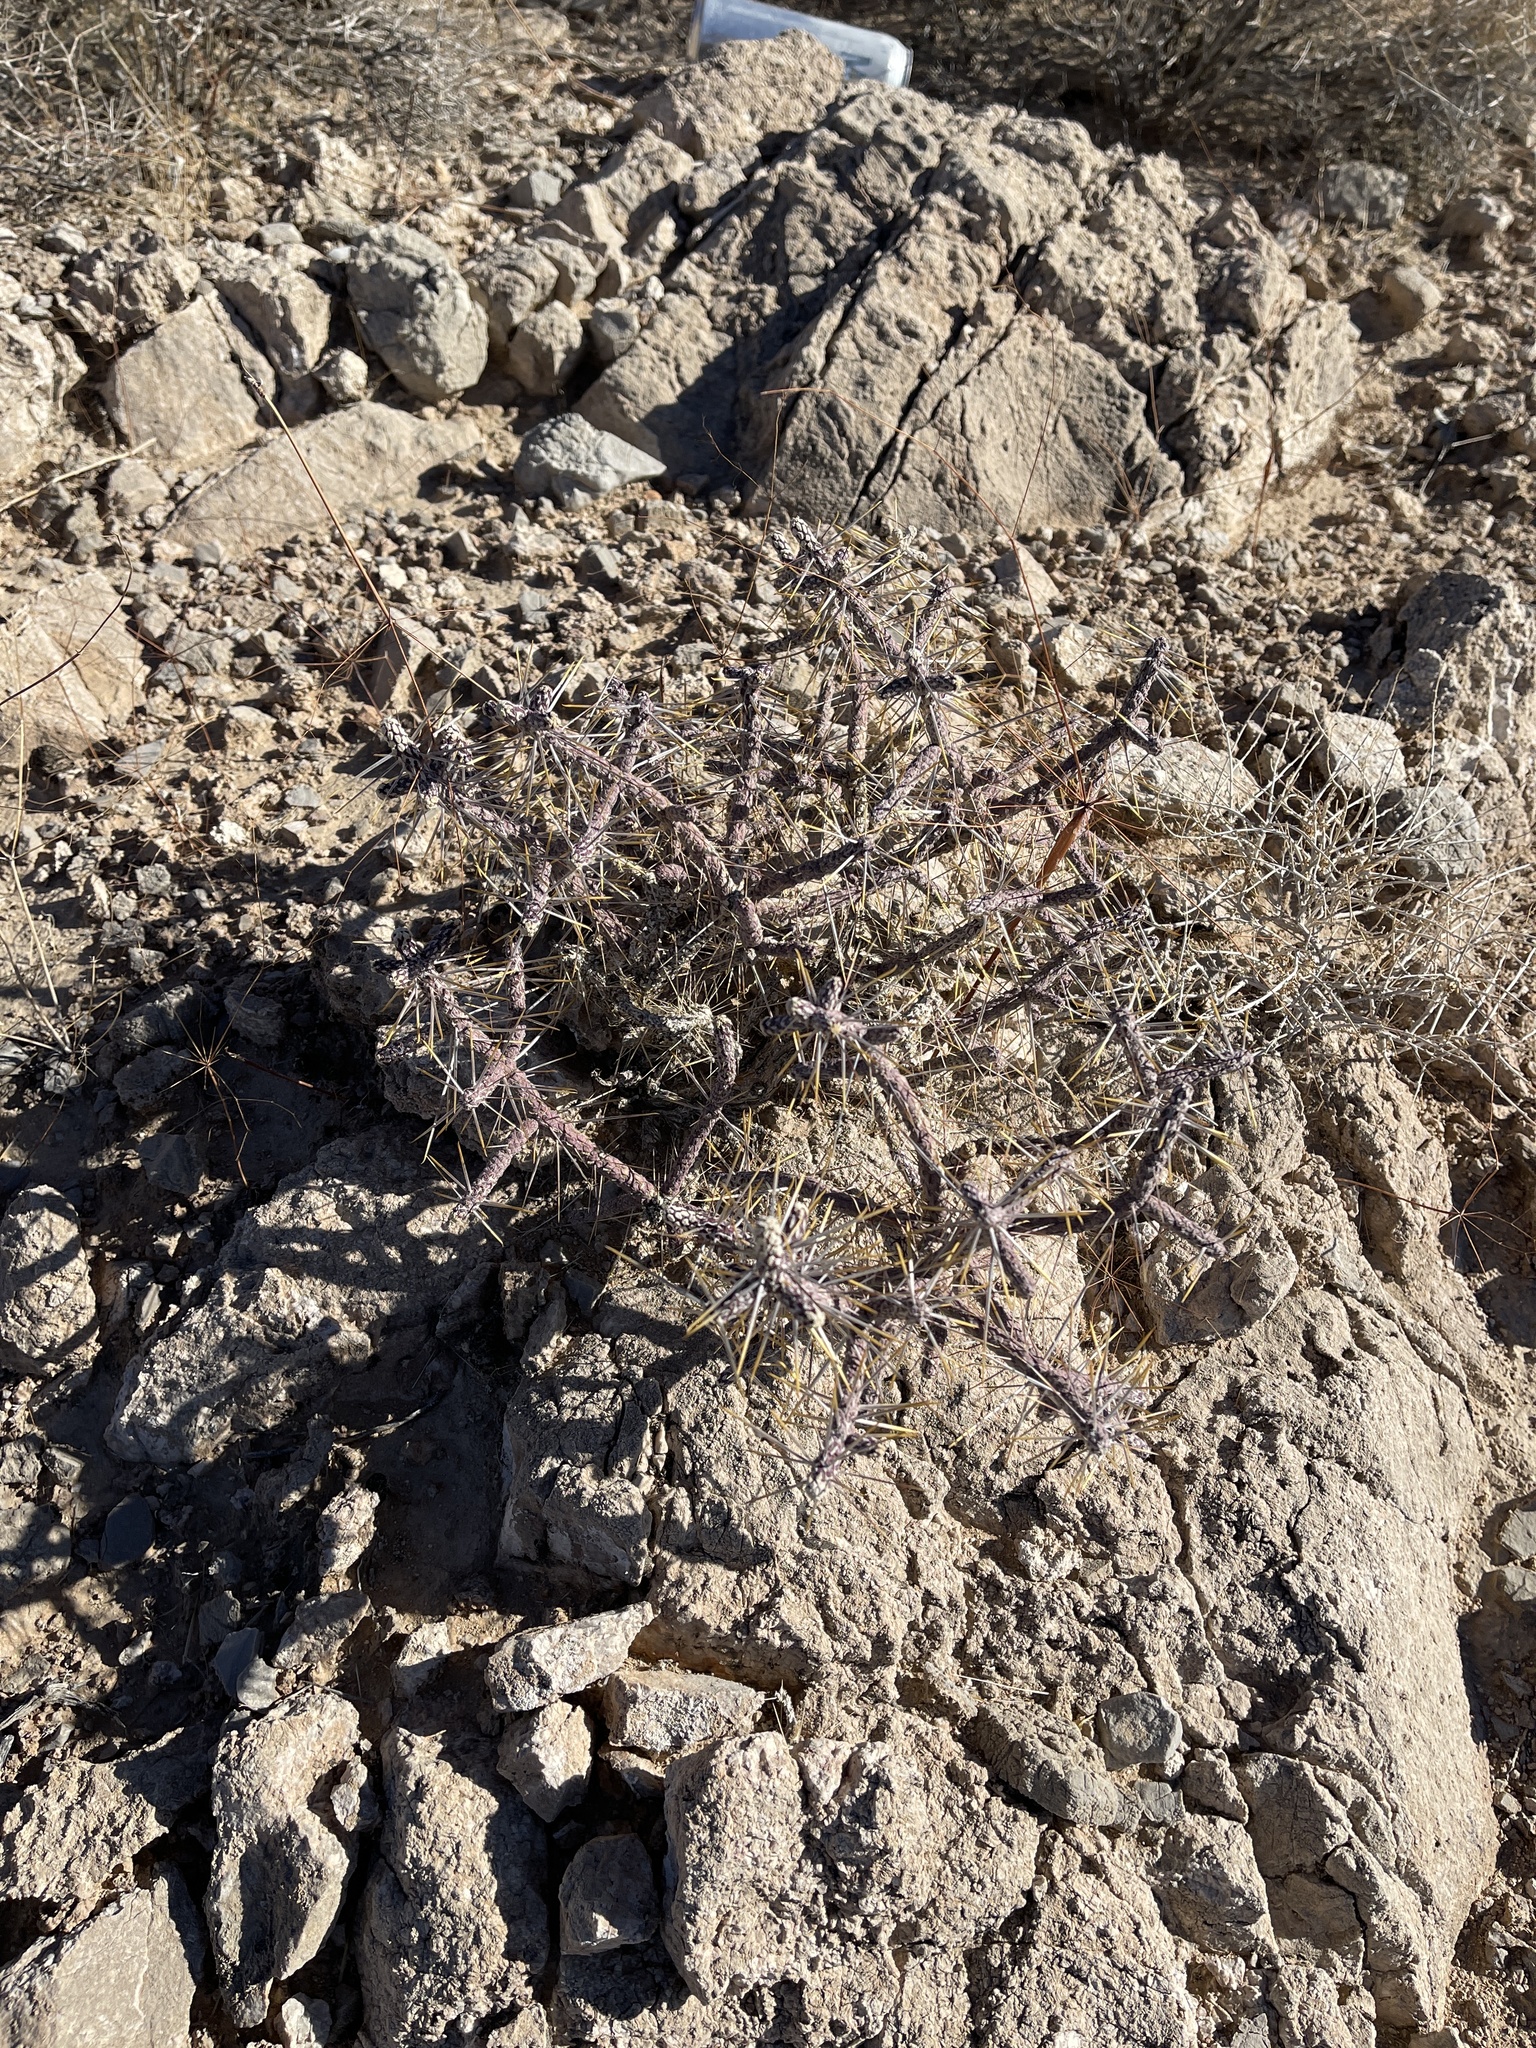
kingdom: Plantae
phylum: Tracheophyta
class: Magnoliopsida
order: Caryophyllales
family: Cactaceae
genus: Cylindropuntia
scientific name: Cylindropuntia ramosissima
